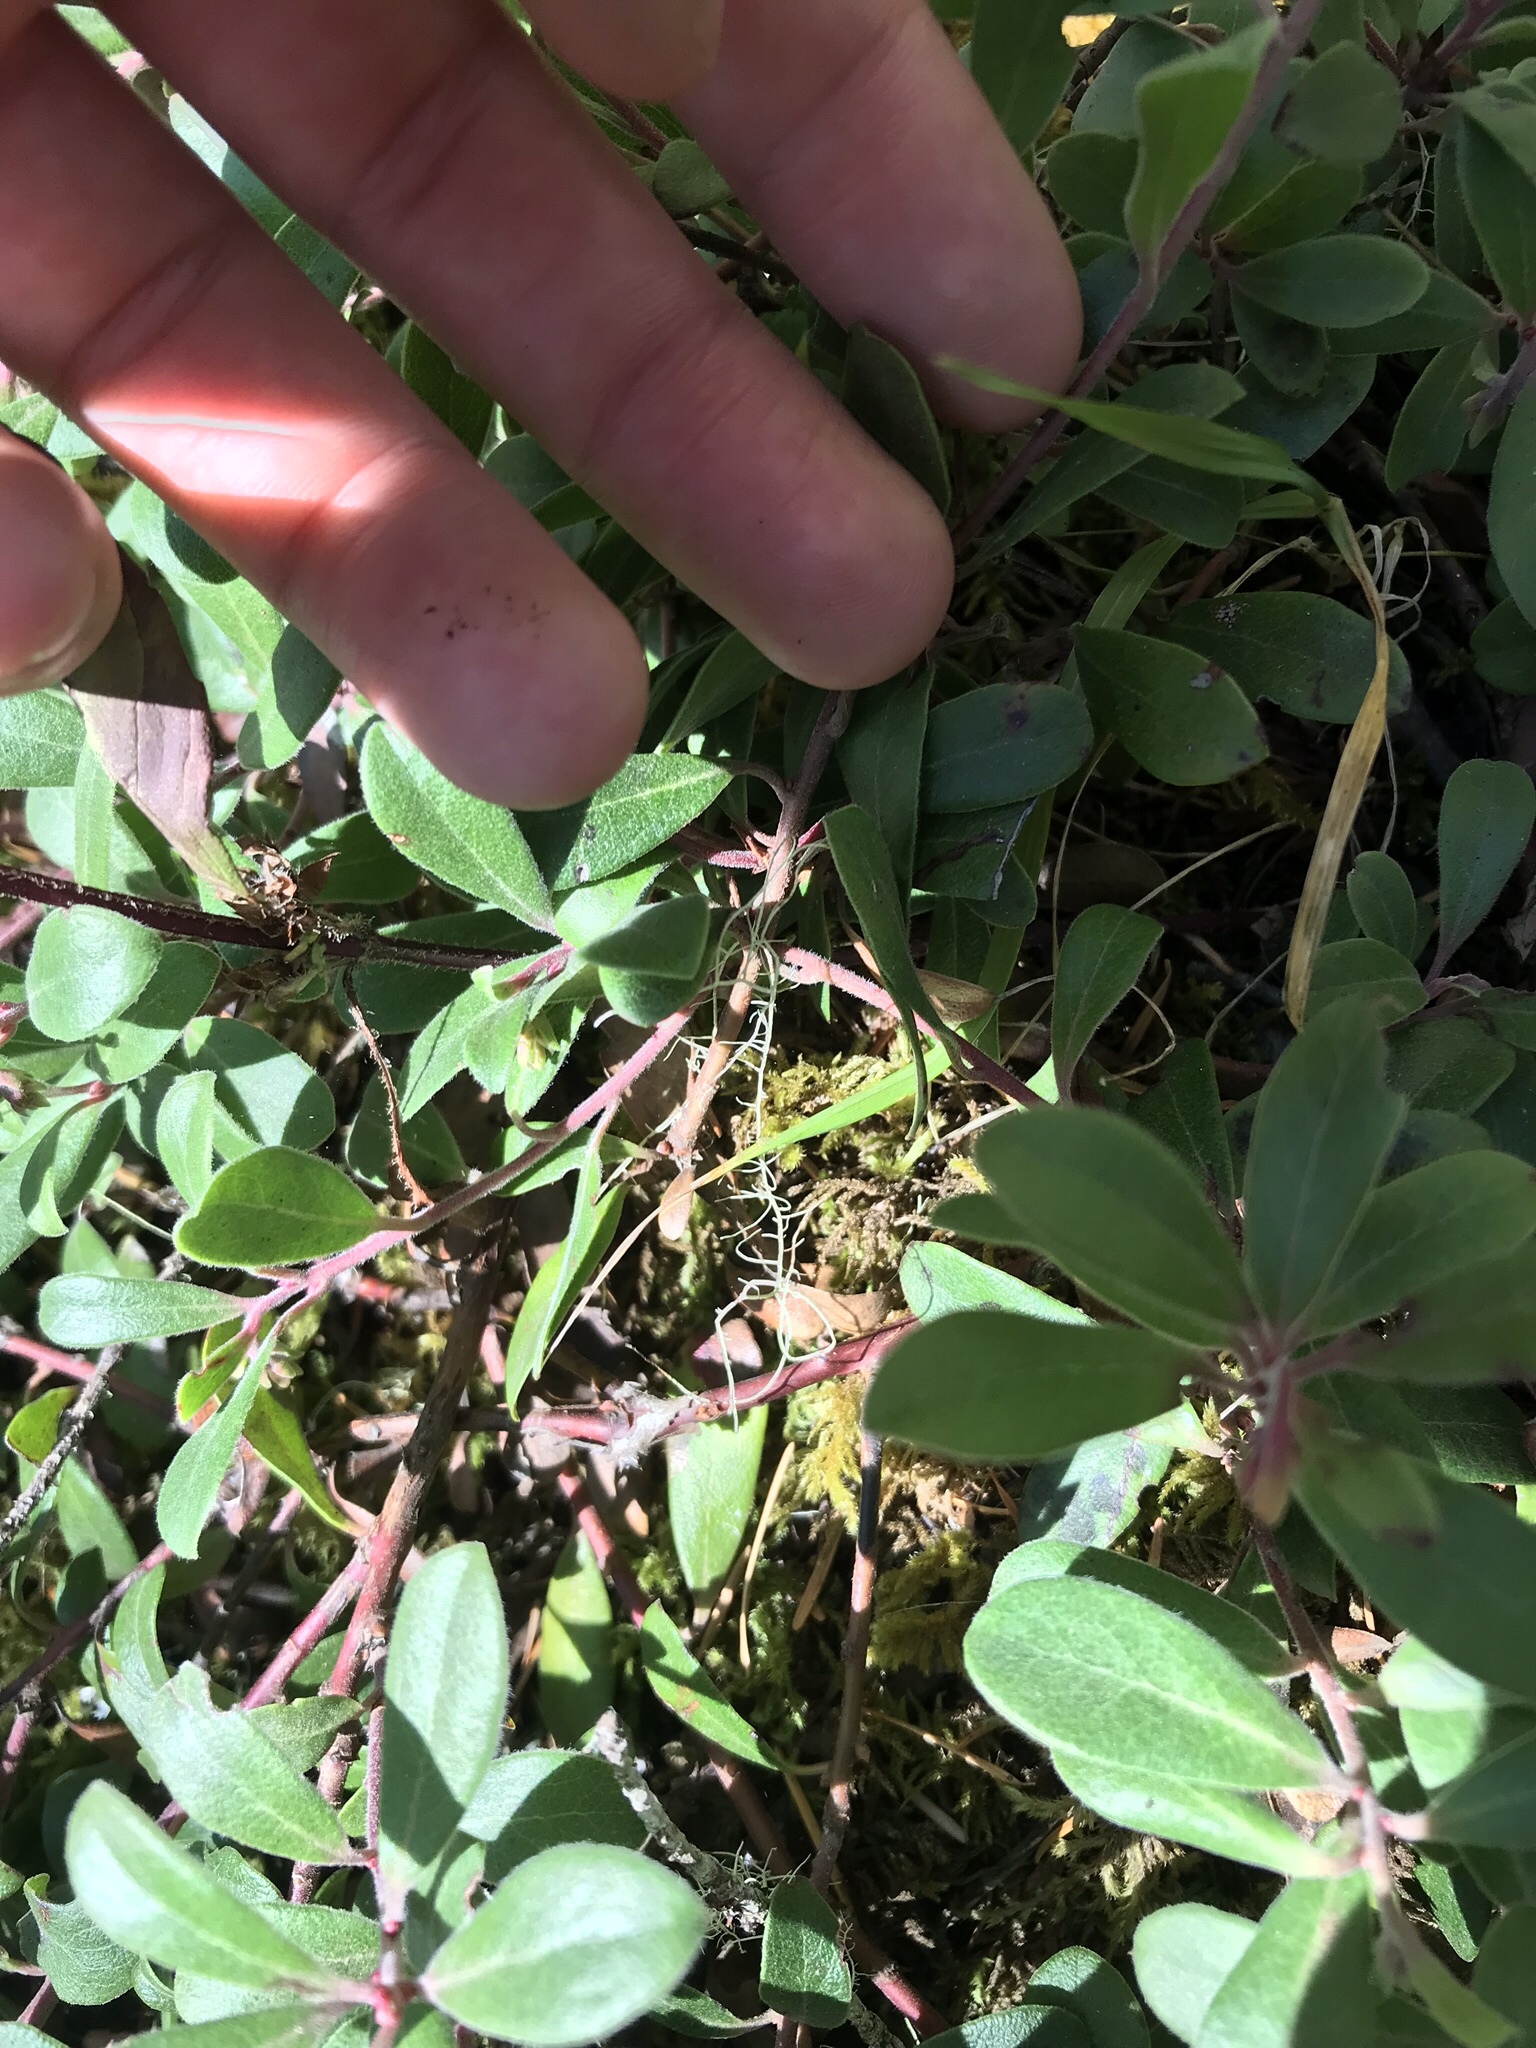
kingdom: Plantae
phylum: Tracheophyta
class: Magnoliopsida
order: Ericales
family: Ericaceae
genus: Arctostaphylos
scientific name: Arctostaphylos uva-ursi
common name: Bearberry
